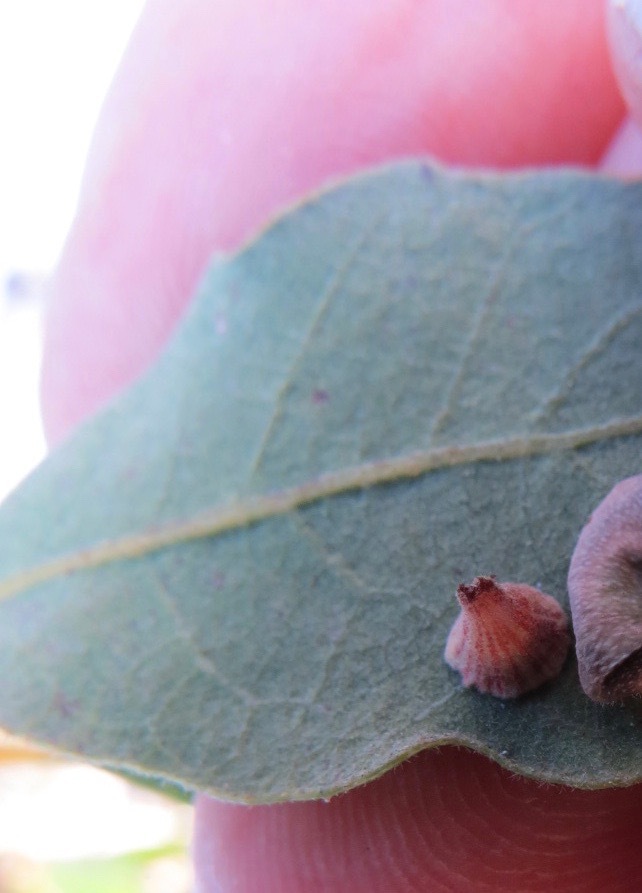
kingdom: Animalia
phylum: Arthropoda
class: Insecta
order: Hymenoptera
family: Cynipidae
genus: Andricus
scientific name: Andricus
